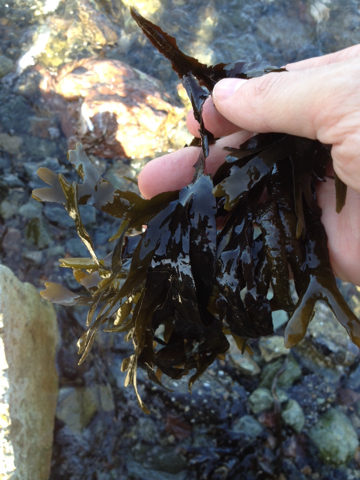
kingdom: Chromista
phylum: Ochrophyta
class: Phaeophyceae
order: Fucales
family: Fucaceae
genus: Fucus
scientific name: Fucus distichus
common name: Rockweed
